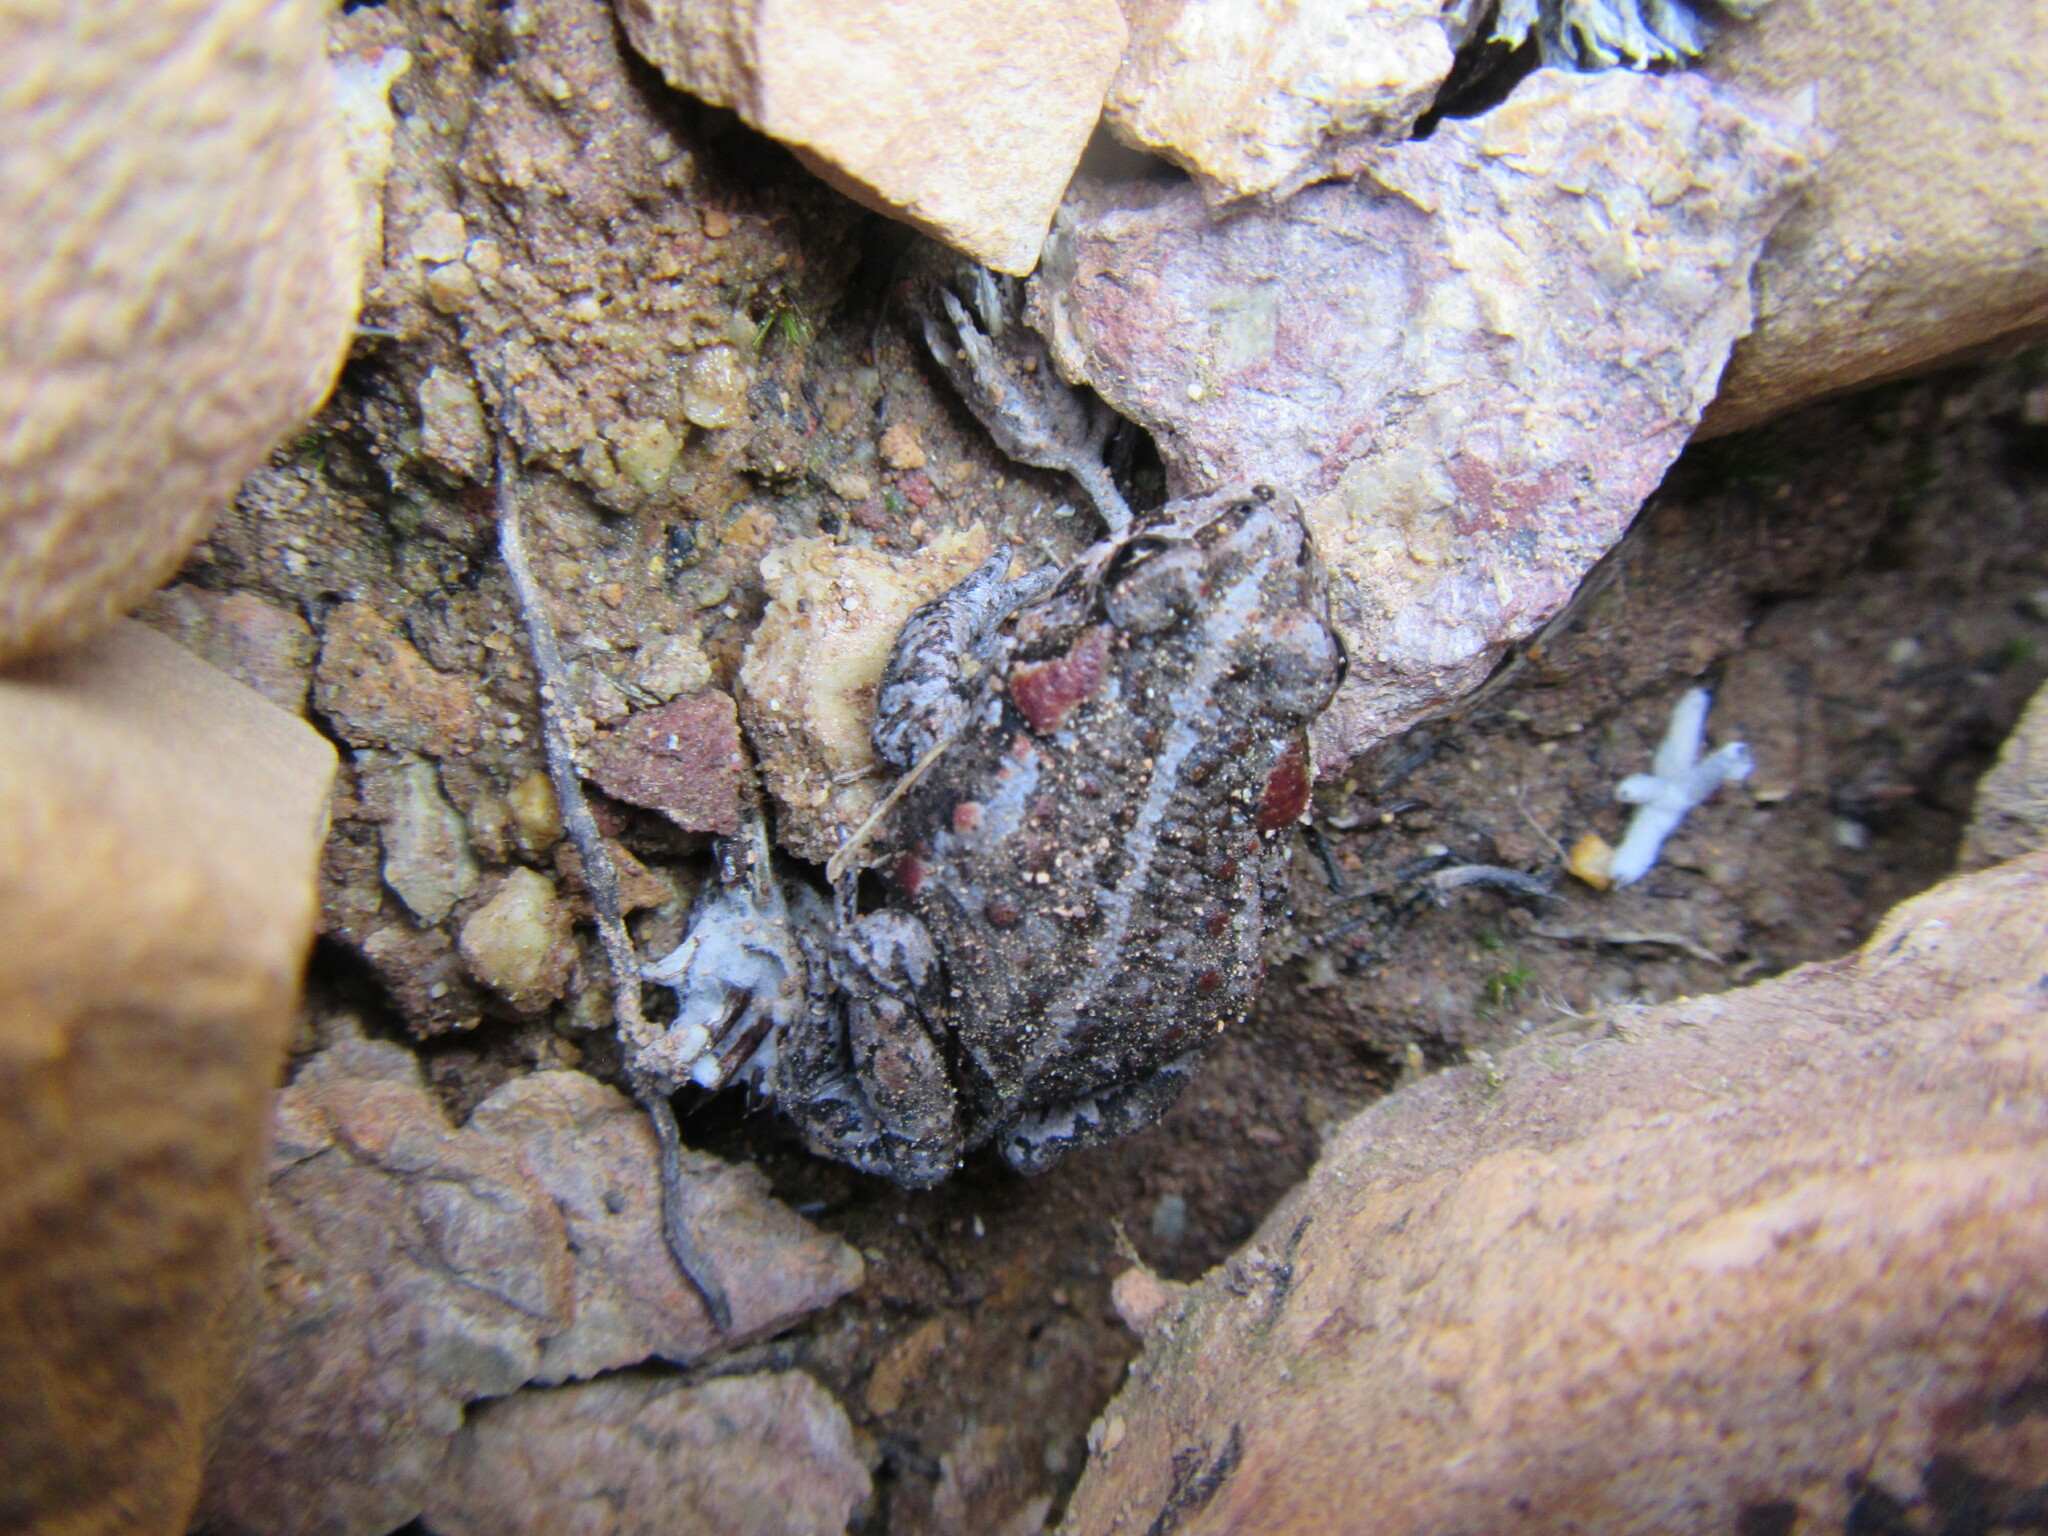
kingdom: Animalia
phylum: Chordata
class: Amphibia
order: Anura
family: Bufonidae
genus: Capensibufo
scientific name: Capensibufo tradouwi
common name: Tradouw mountain toadlet
